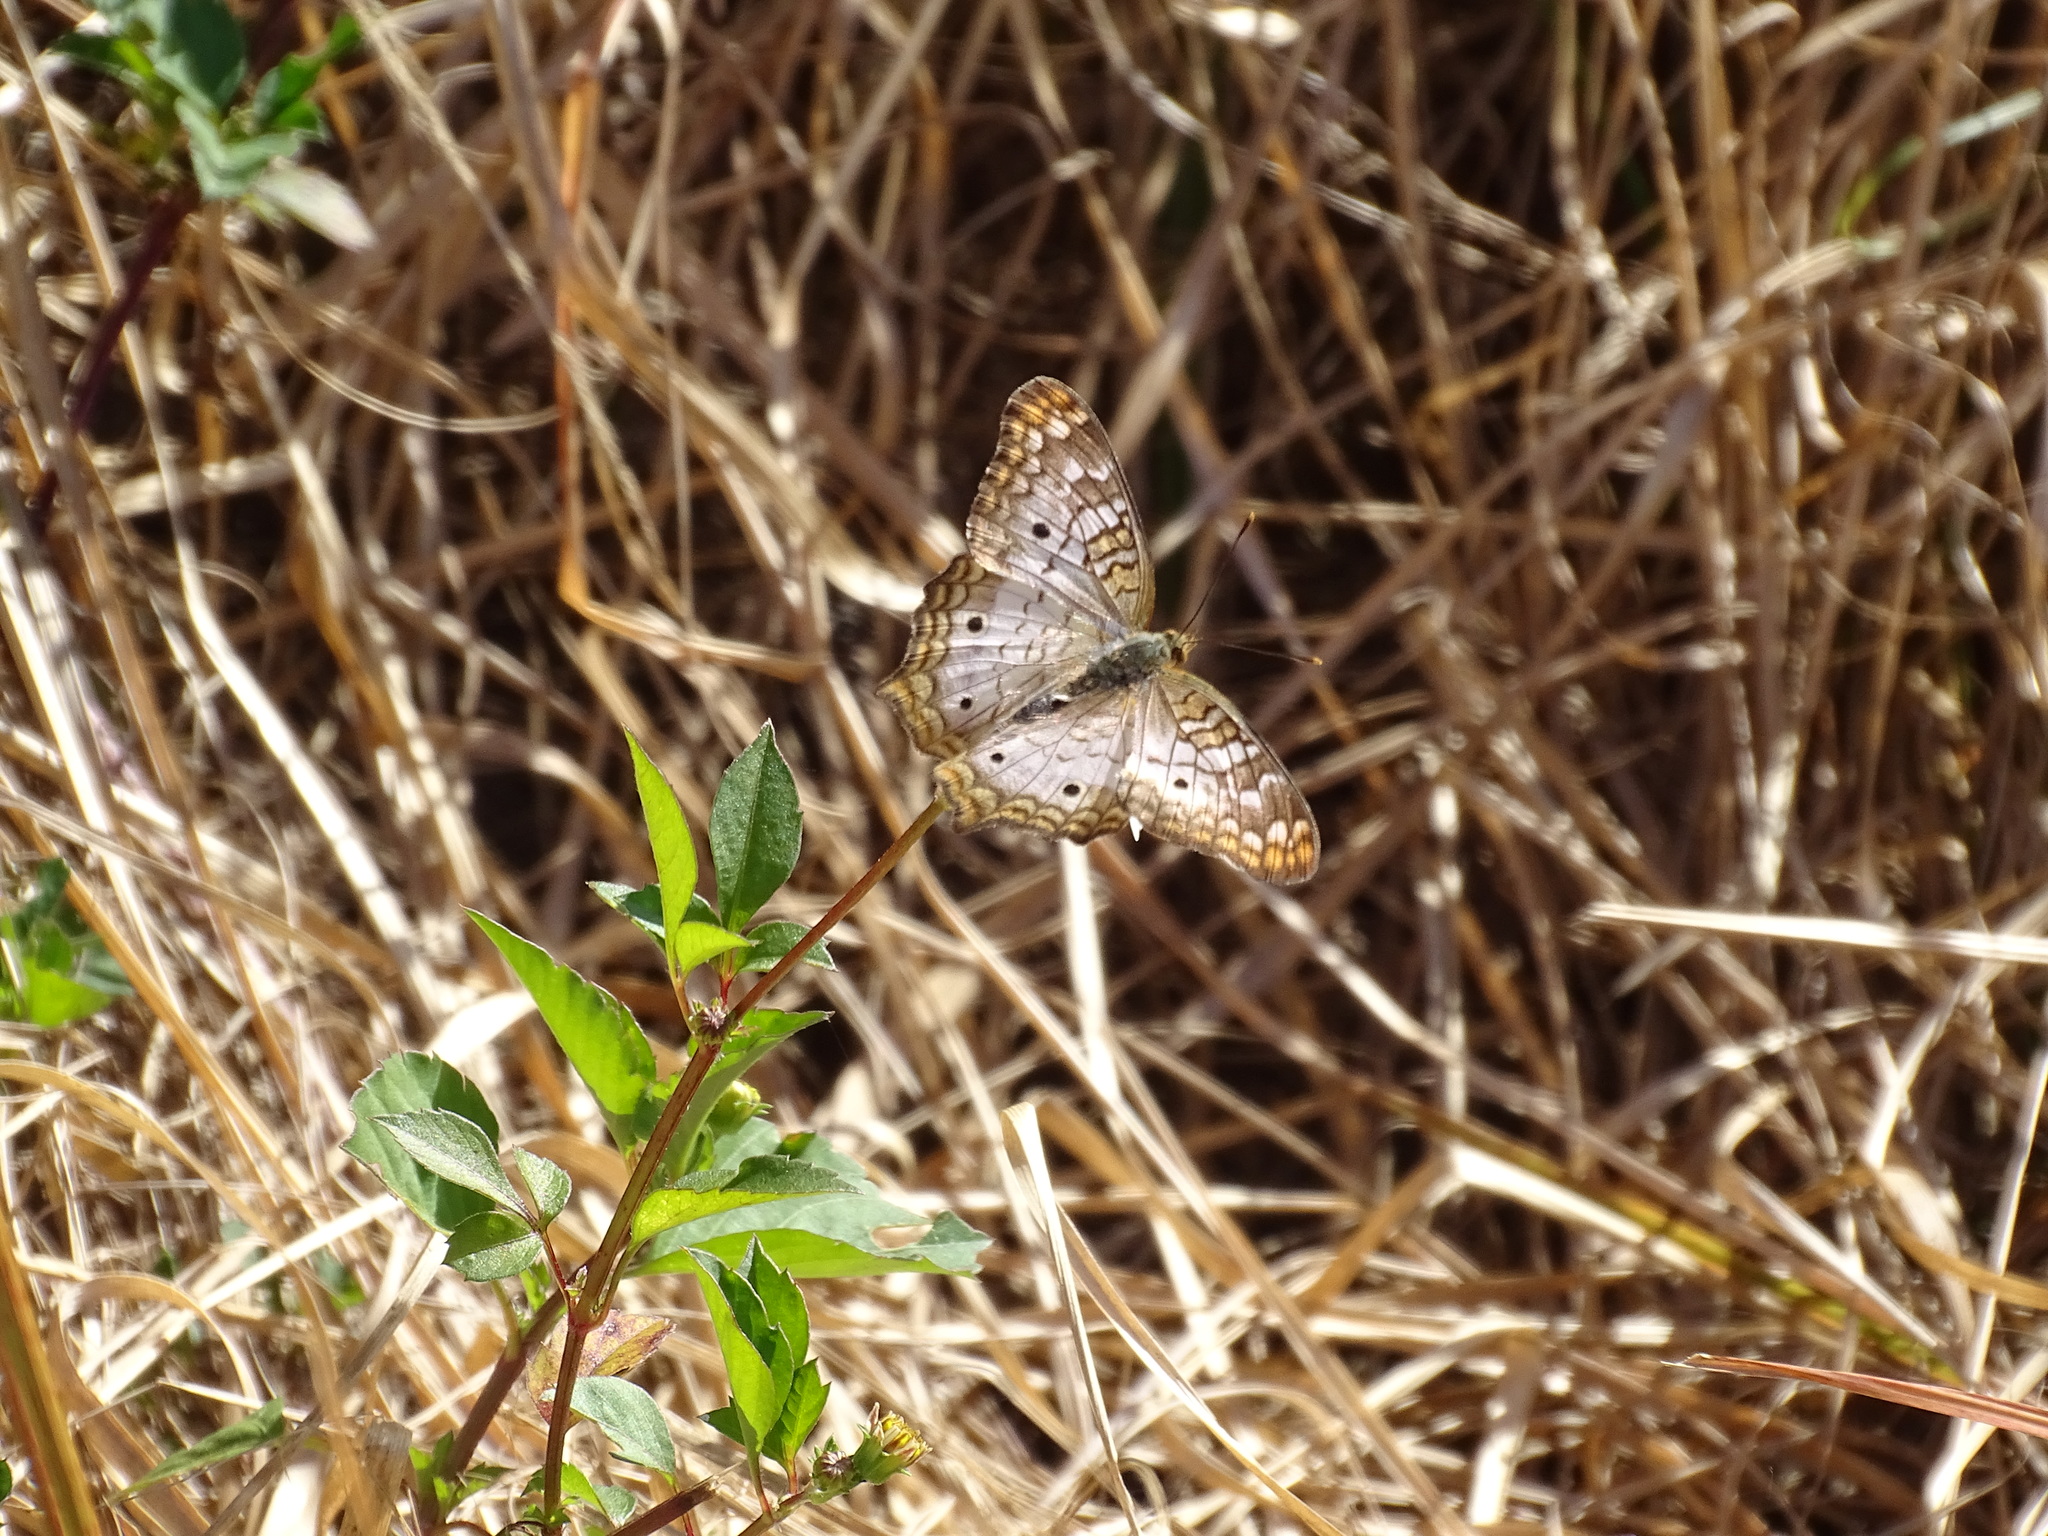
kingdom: Animalia
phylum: Arthropoda
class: Insecta
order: Lepidoptera
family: Nymphalidae
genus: Anartia
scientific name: Anartia jatrophae
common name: White peacock
